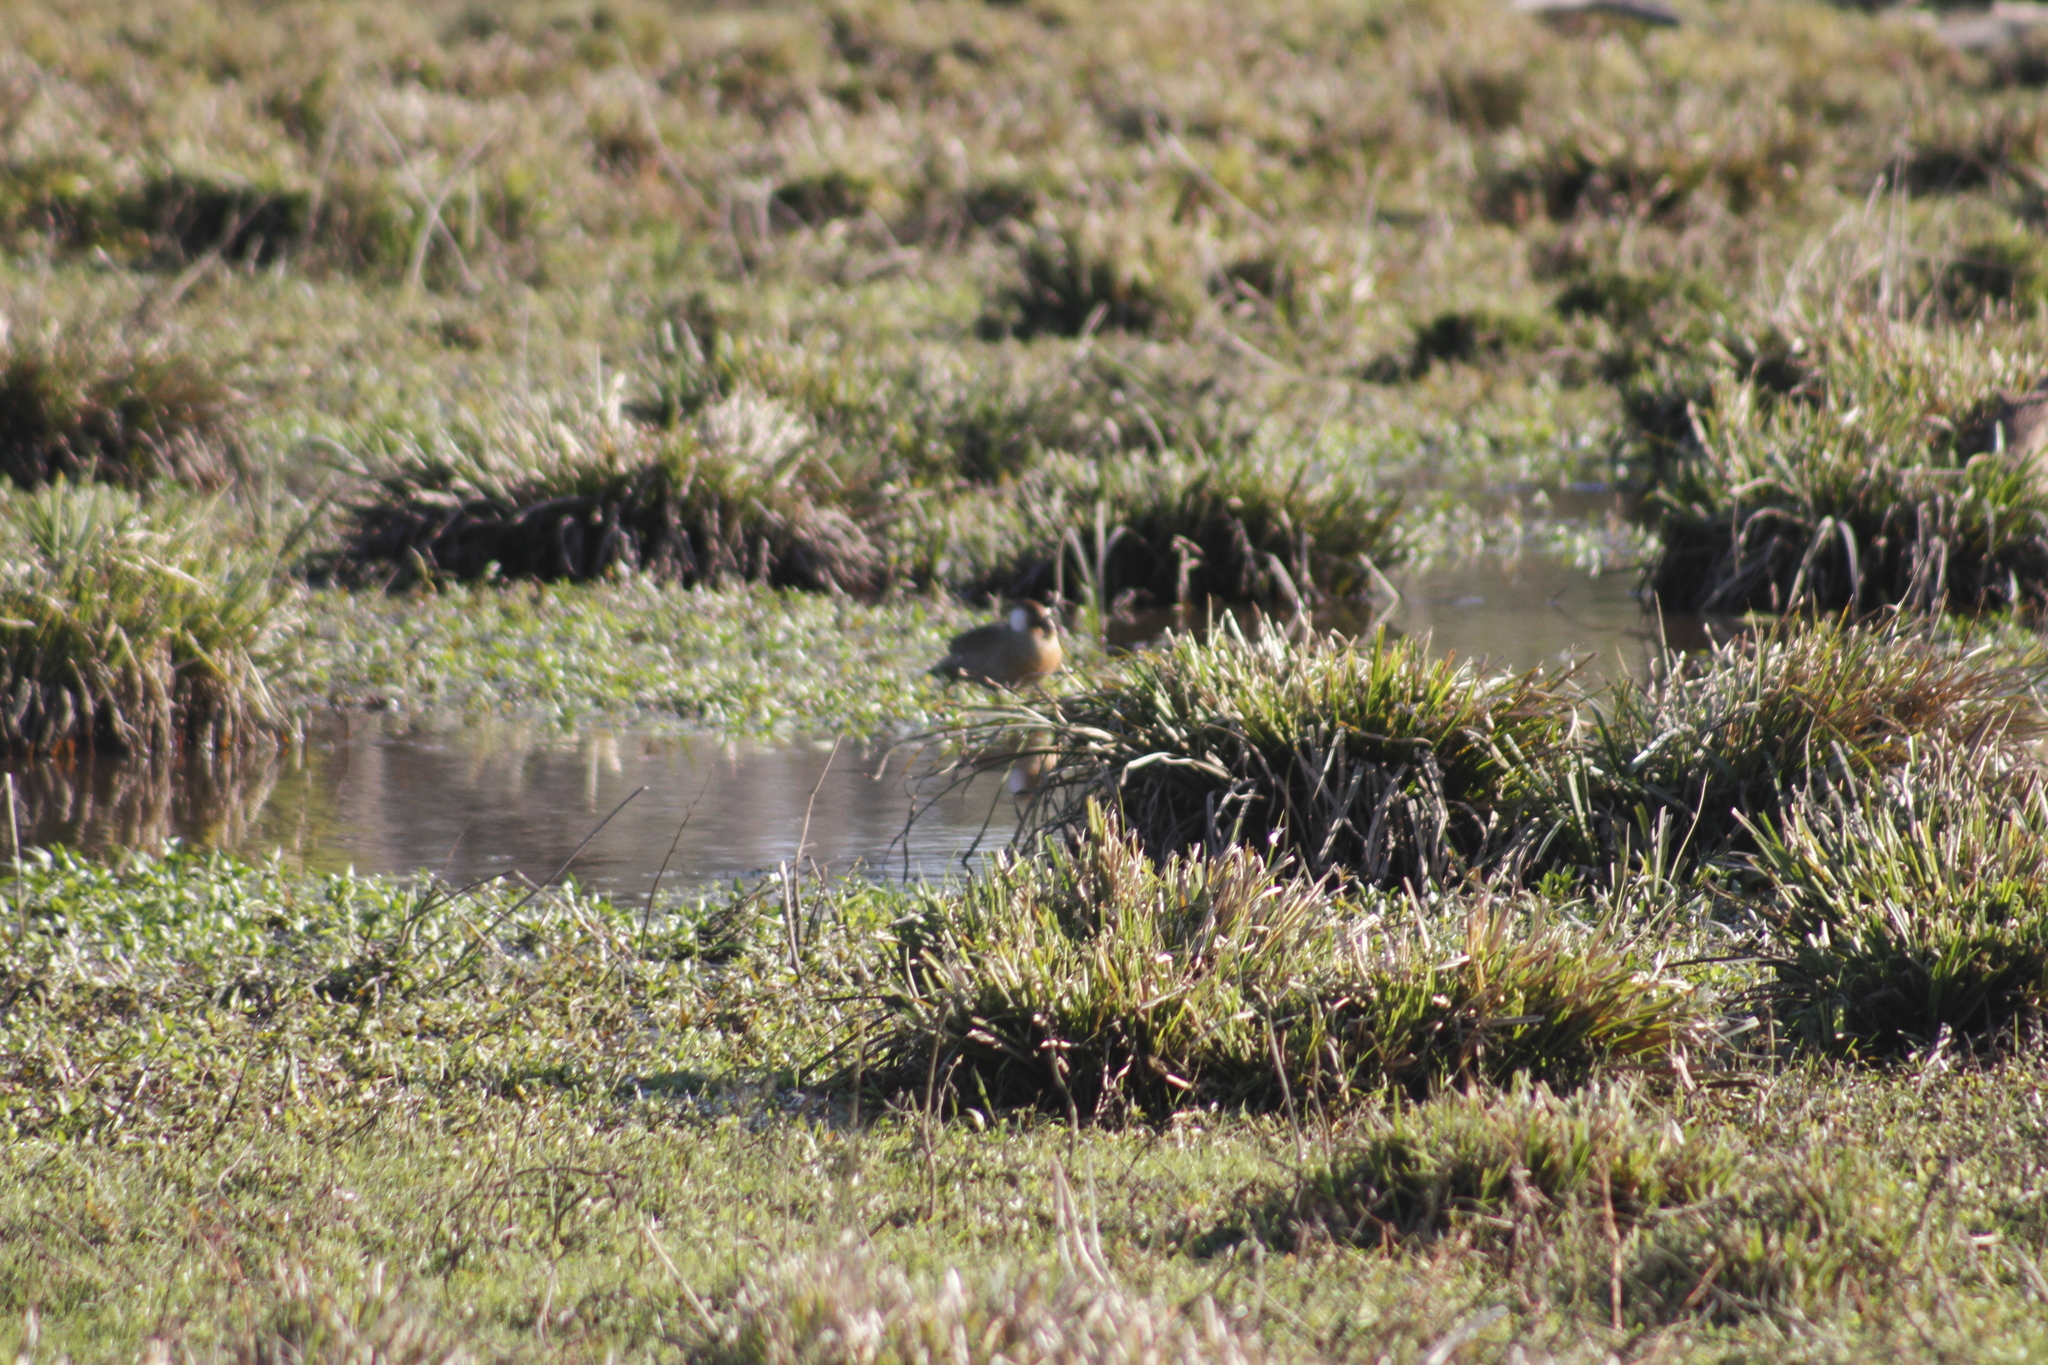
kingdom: Animalia
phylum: Chordata
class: Aves
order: Anseriformes
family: Anatidae
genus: Amazonetta
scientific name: Amazonetta brasiliensis
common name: Brazilian teal
